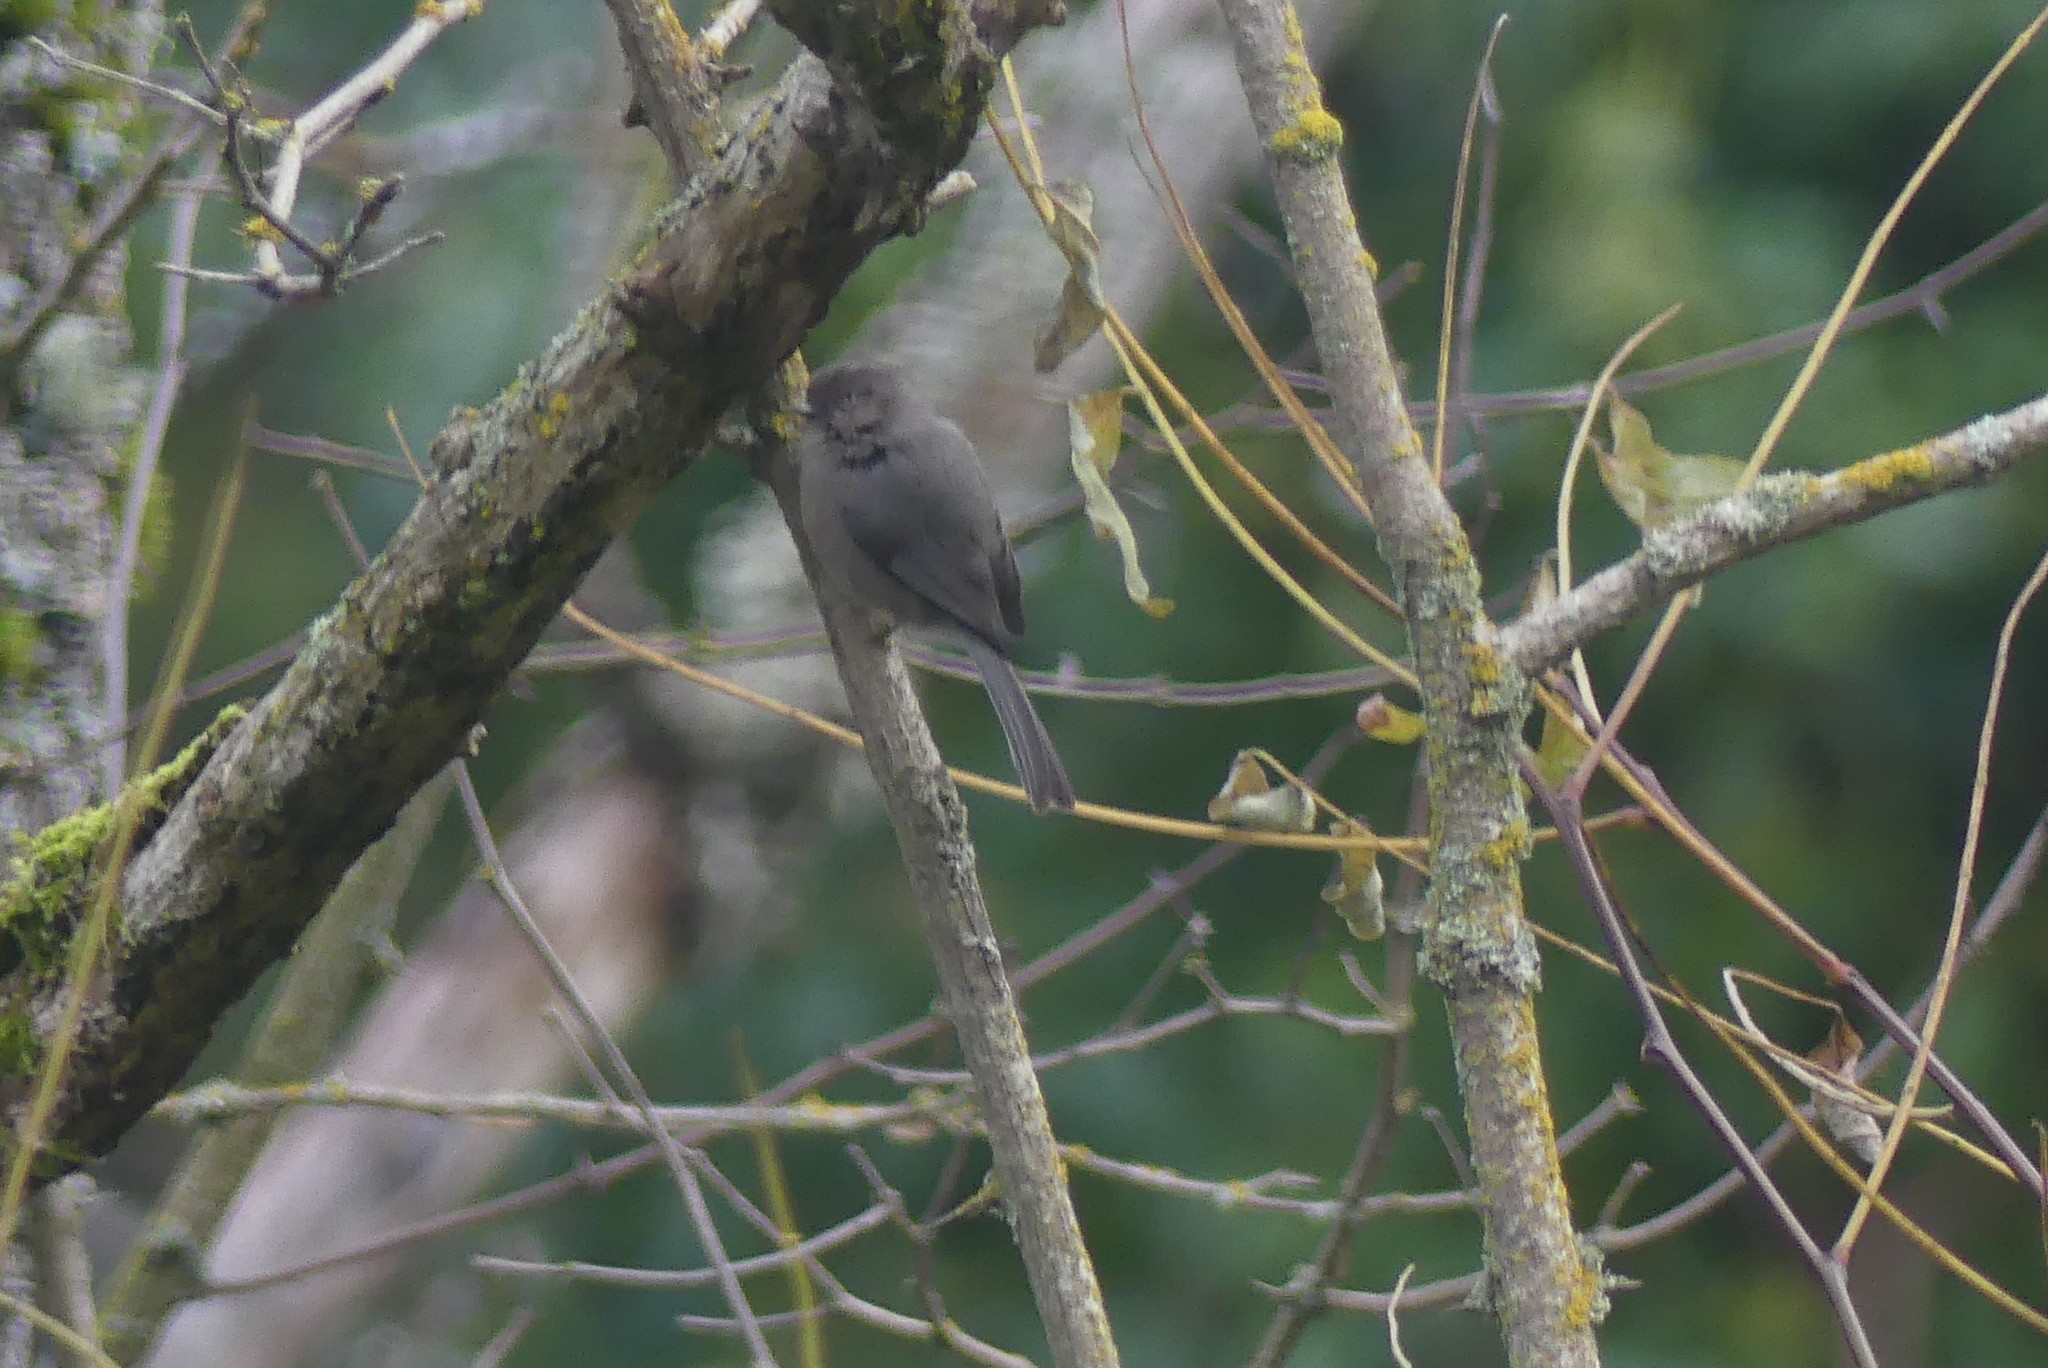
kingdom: Animalia
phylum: Chordata
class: Aves
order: Passeriformes
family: Aegithalidae
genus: Psaltriparus
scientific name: Psaltriparus minimus
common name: American bushtit
